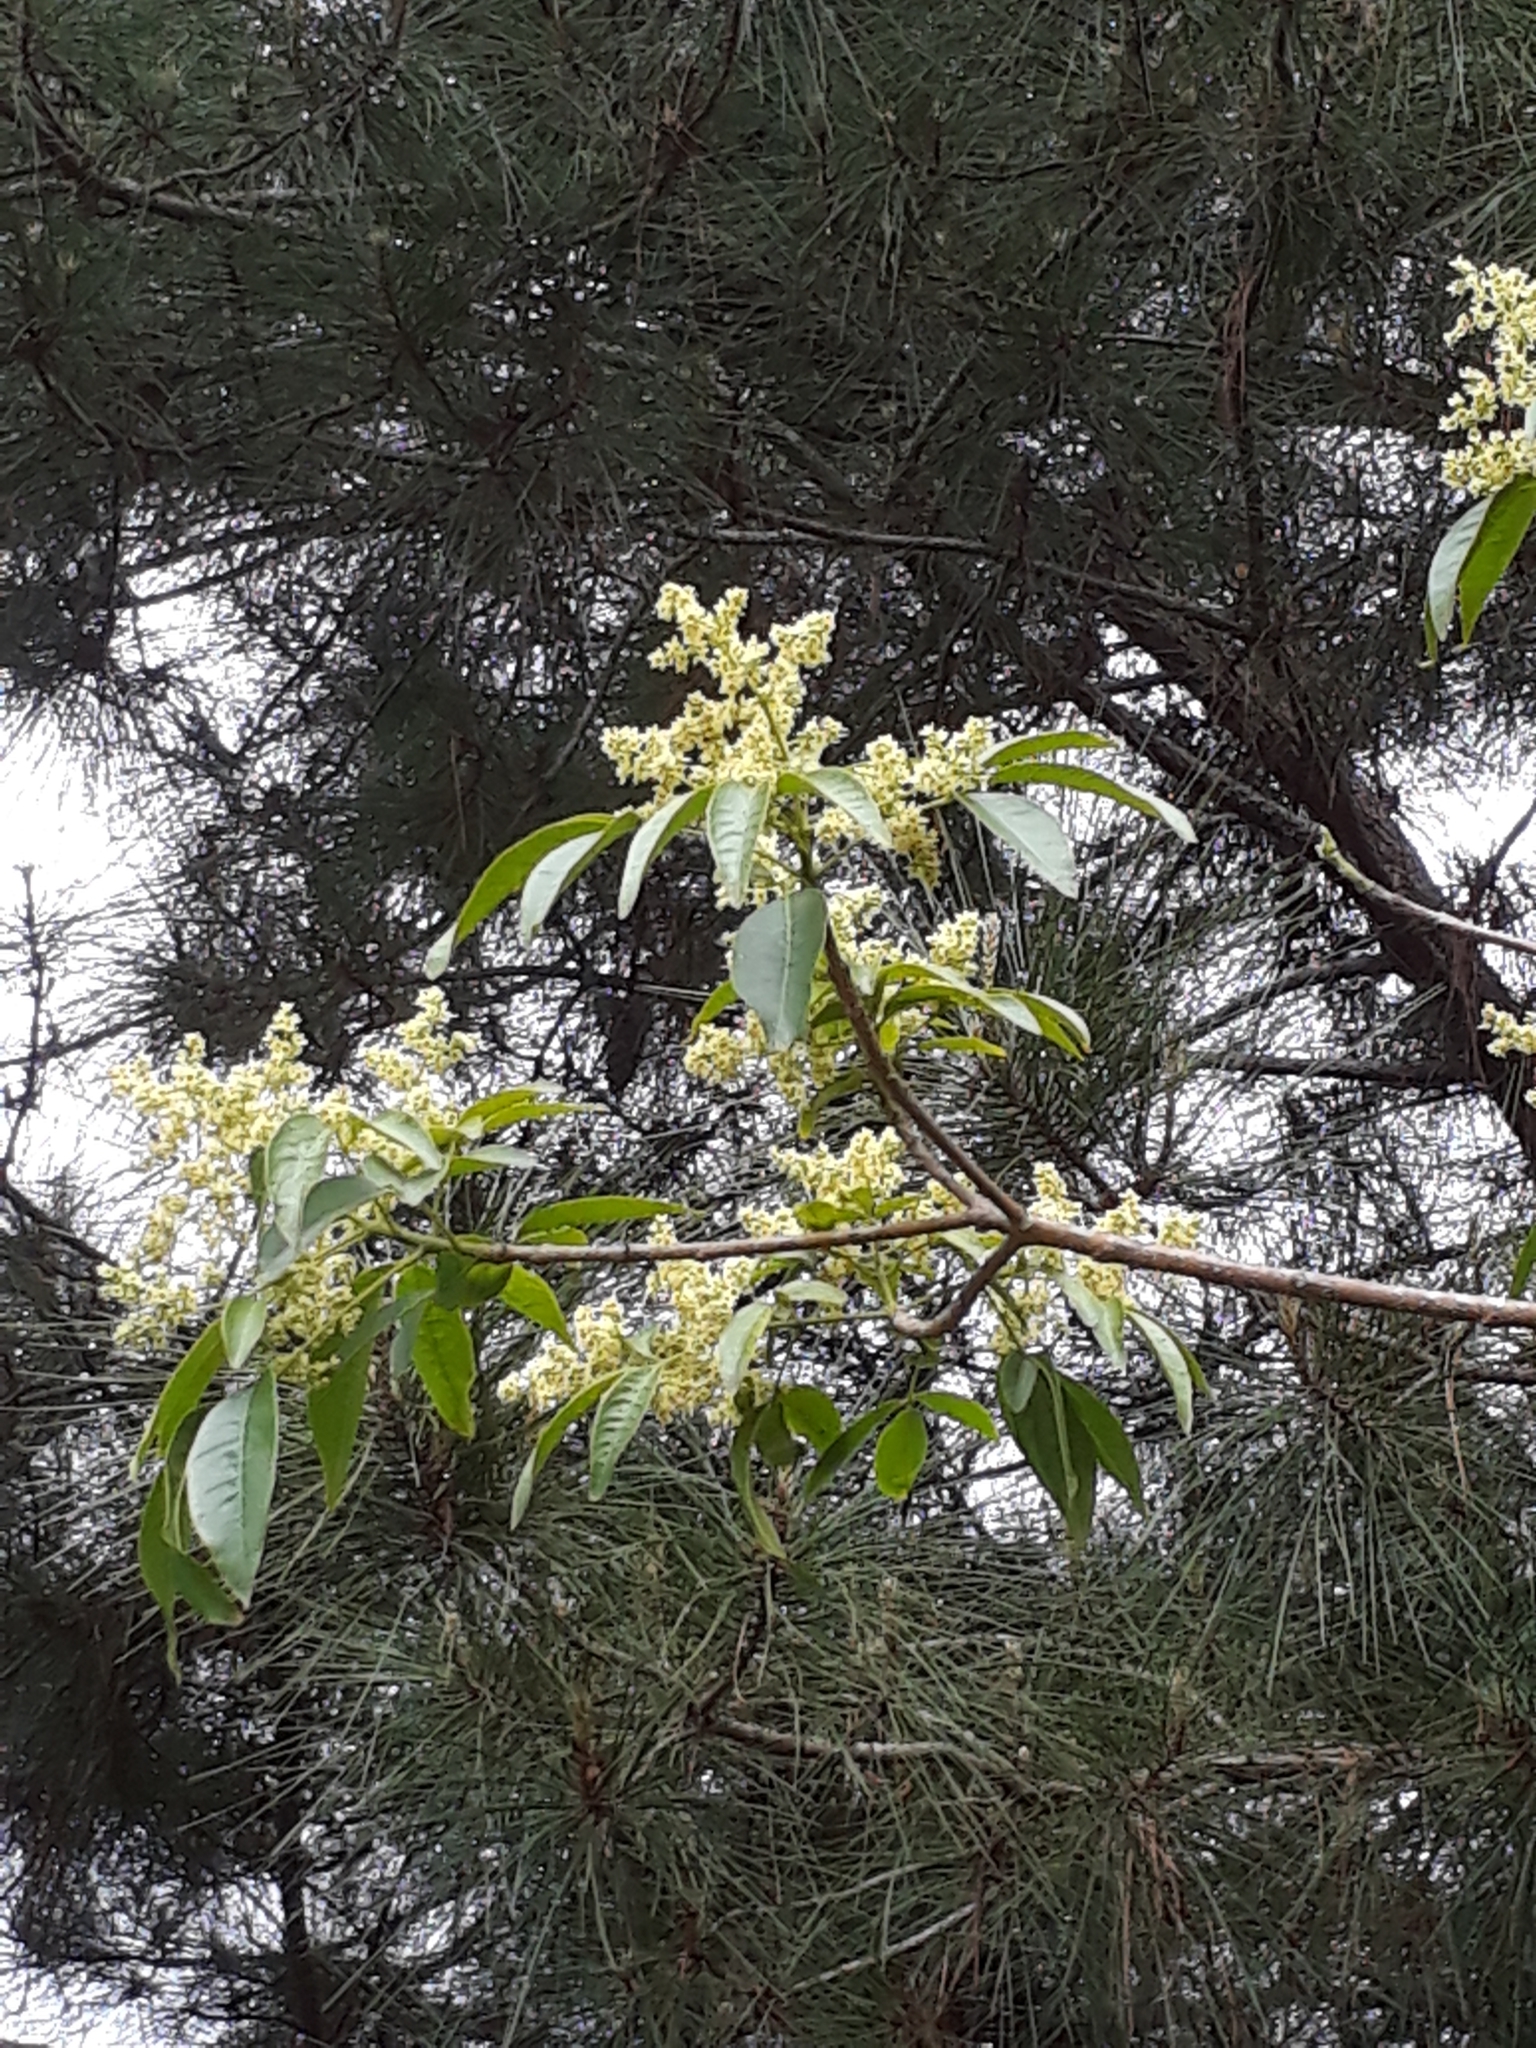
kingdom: Plantae
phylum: Tracheophyta
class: Magnoliopsida
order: Sapindales
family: Rutaceae
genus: Balfourodendron
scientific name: Balfourodendron riedelianum
